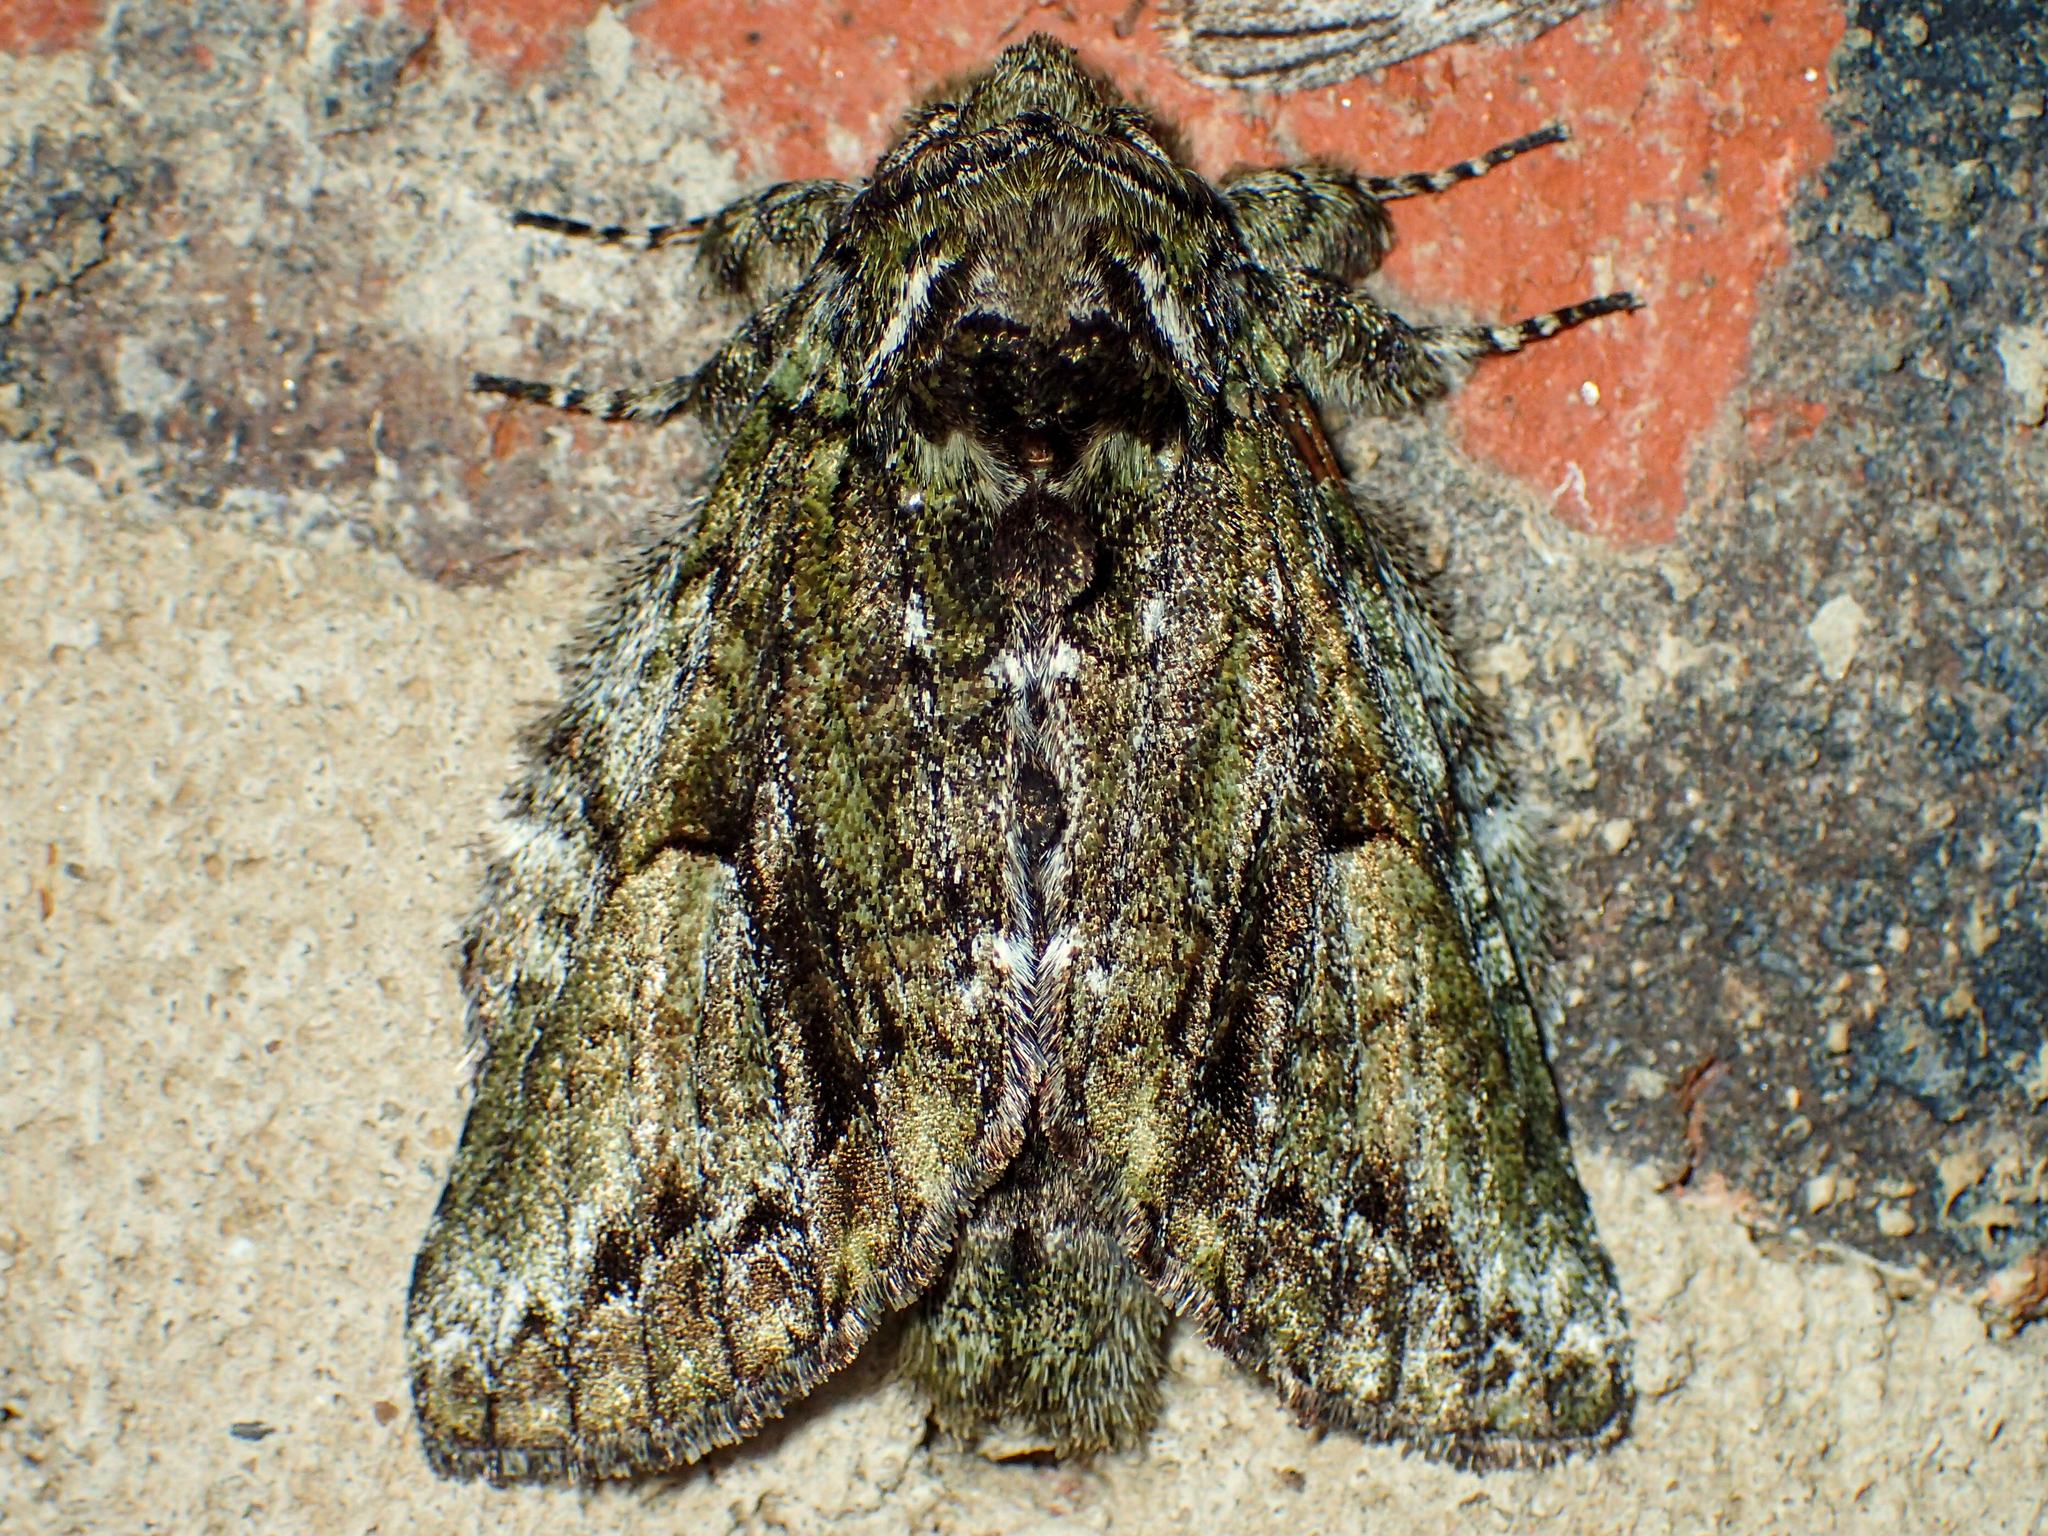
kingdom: Animalia
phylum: Arthropoda
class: Insecta
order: Lepidoptera
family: Notodontidae
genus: Heterocampa
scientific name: Heterocampa
